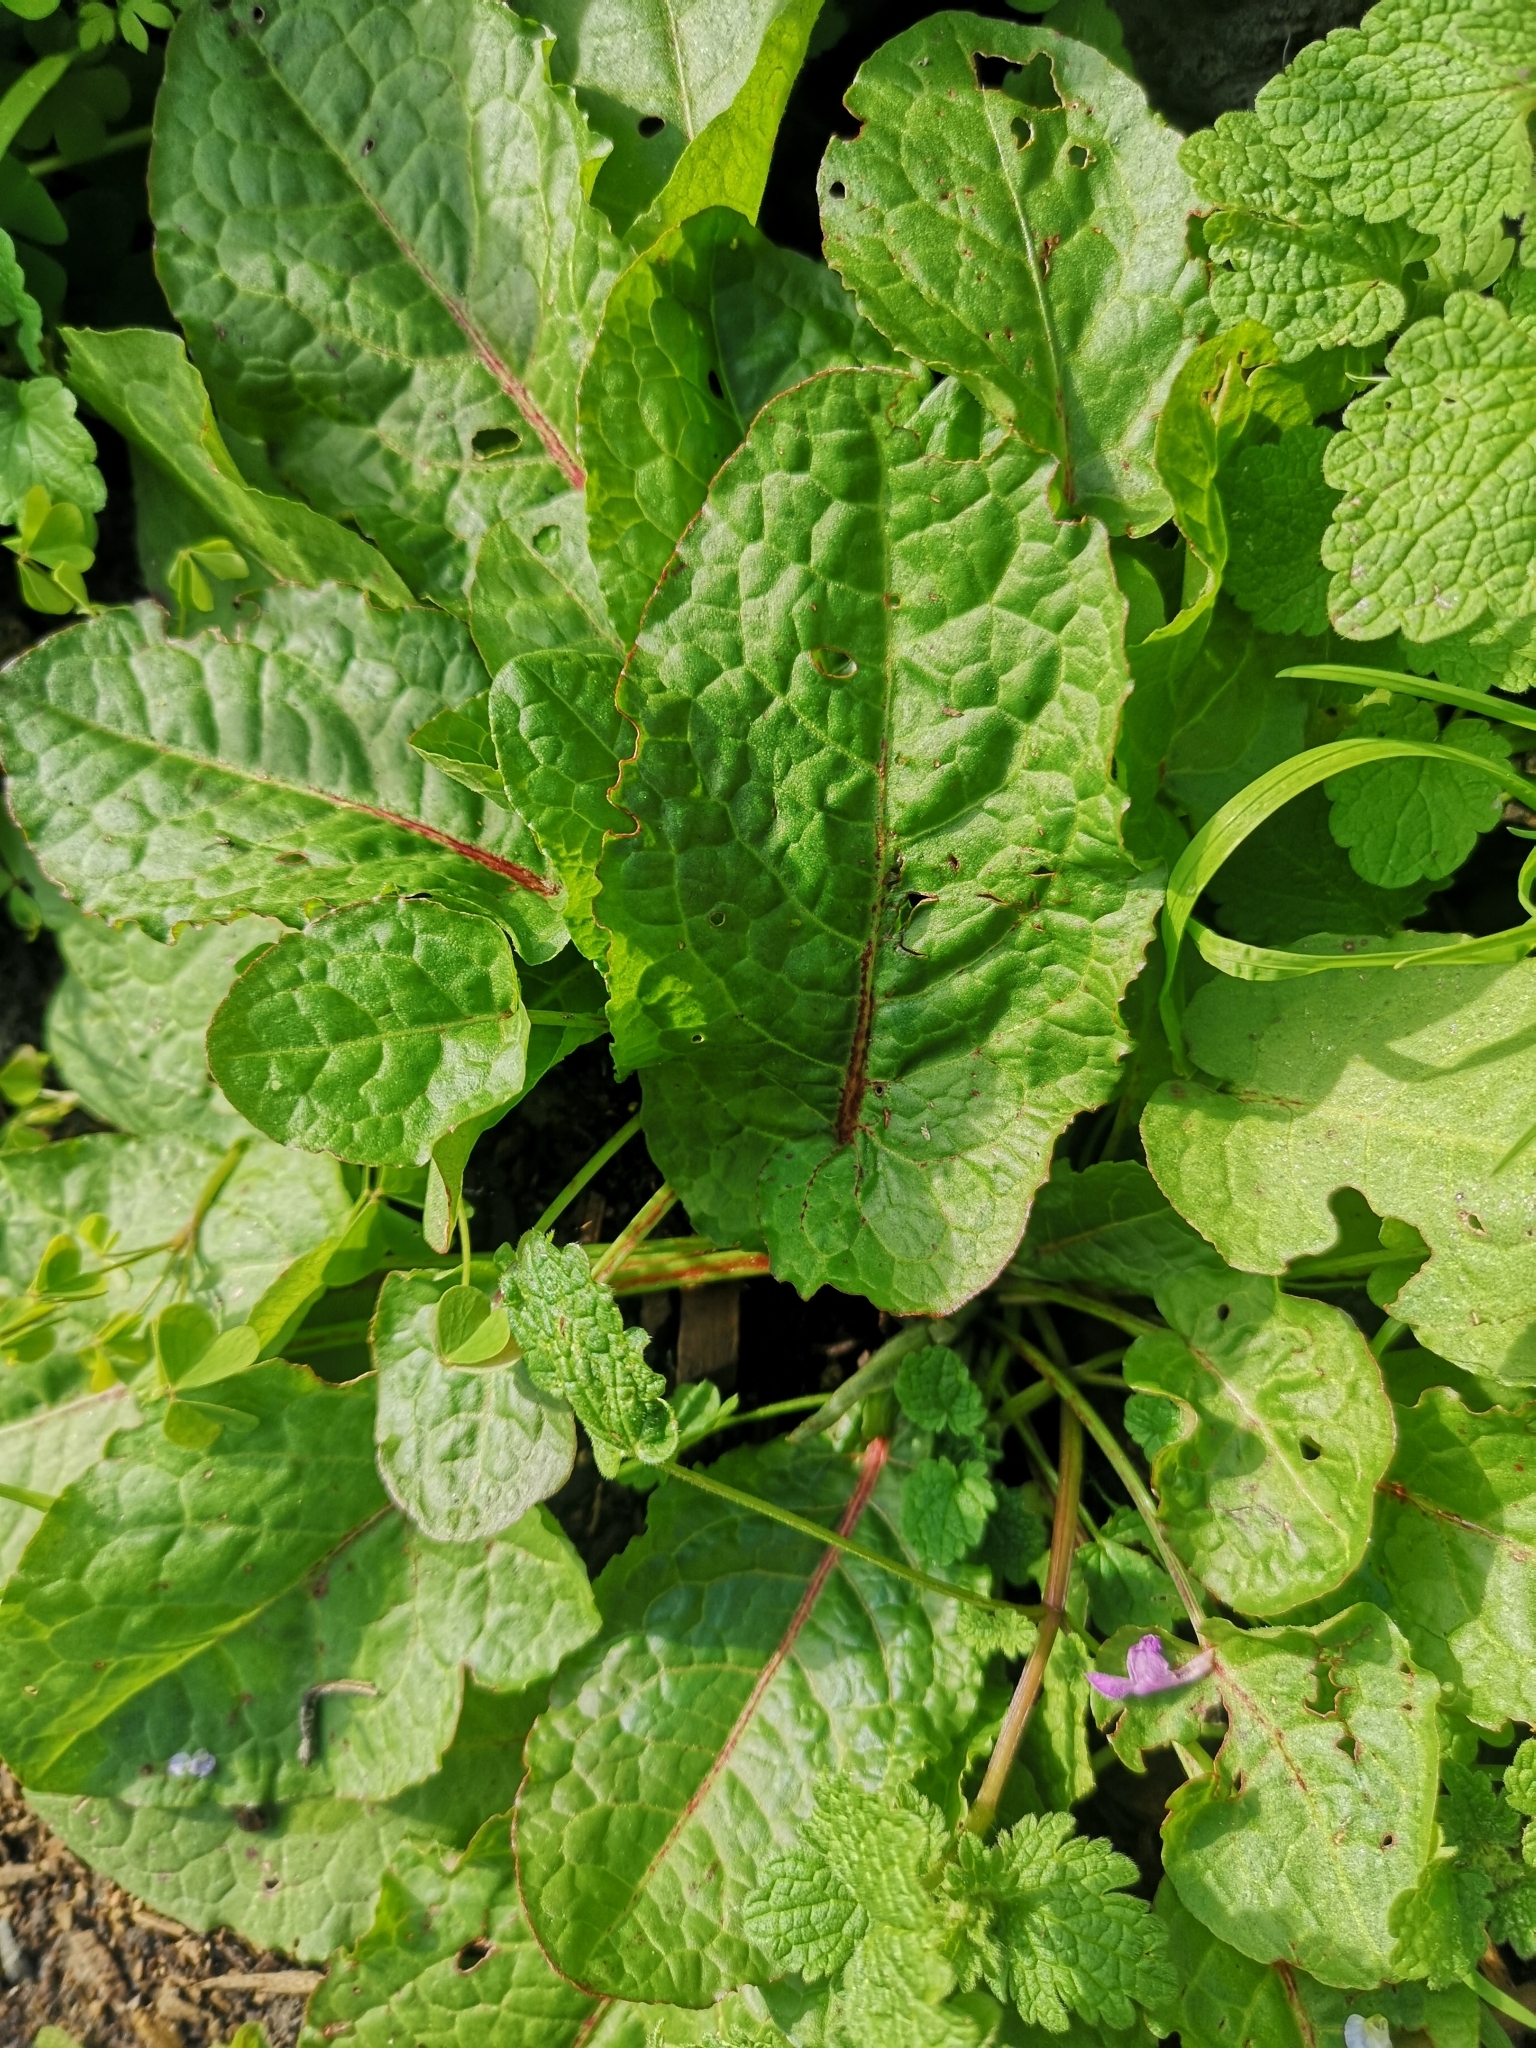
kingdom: Plantae
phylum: Tracheophyta
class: Magnoliopsida
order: Caryophyllales
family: Polygonaceae
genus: Rumex
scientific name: Rumex obtusifolius
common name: Bitter dock
